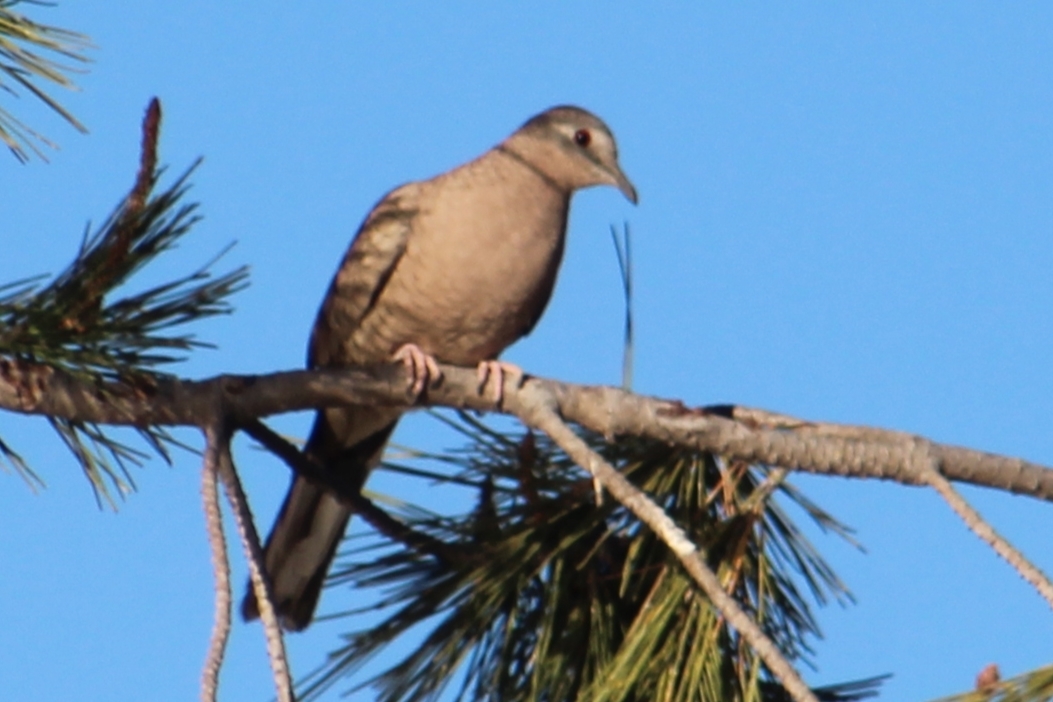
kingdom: Animalia
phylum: Chordata
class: Aves
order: Columbiformes
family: Columbidae
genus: Columbina
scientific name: Columbina inca
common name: Inca dove
